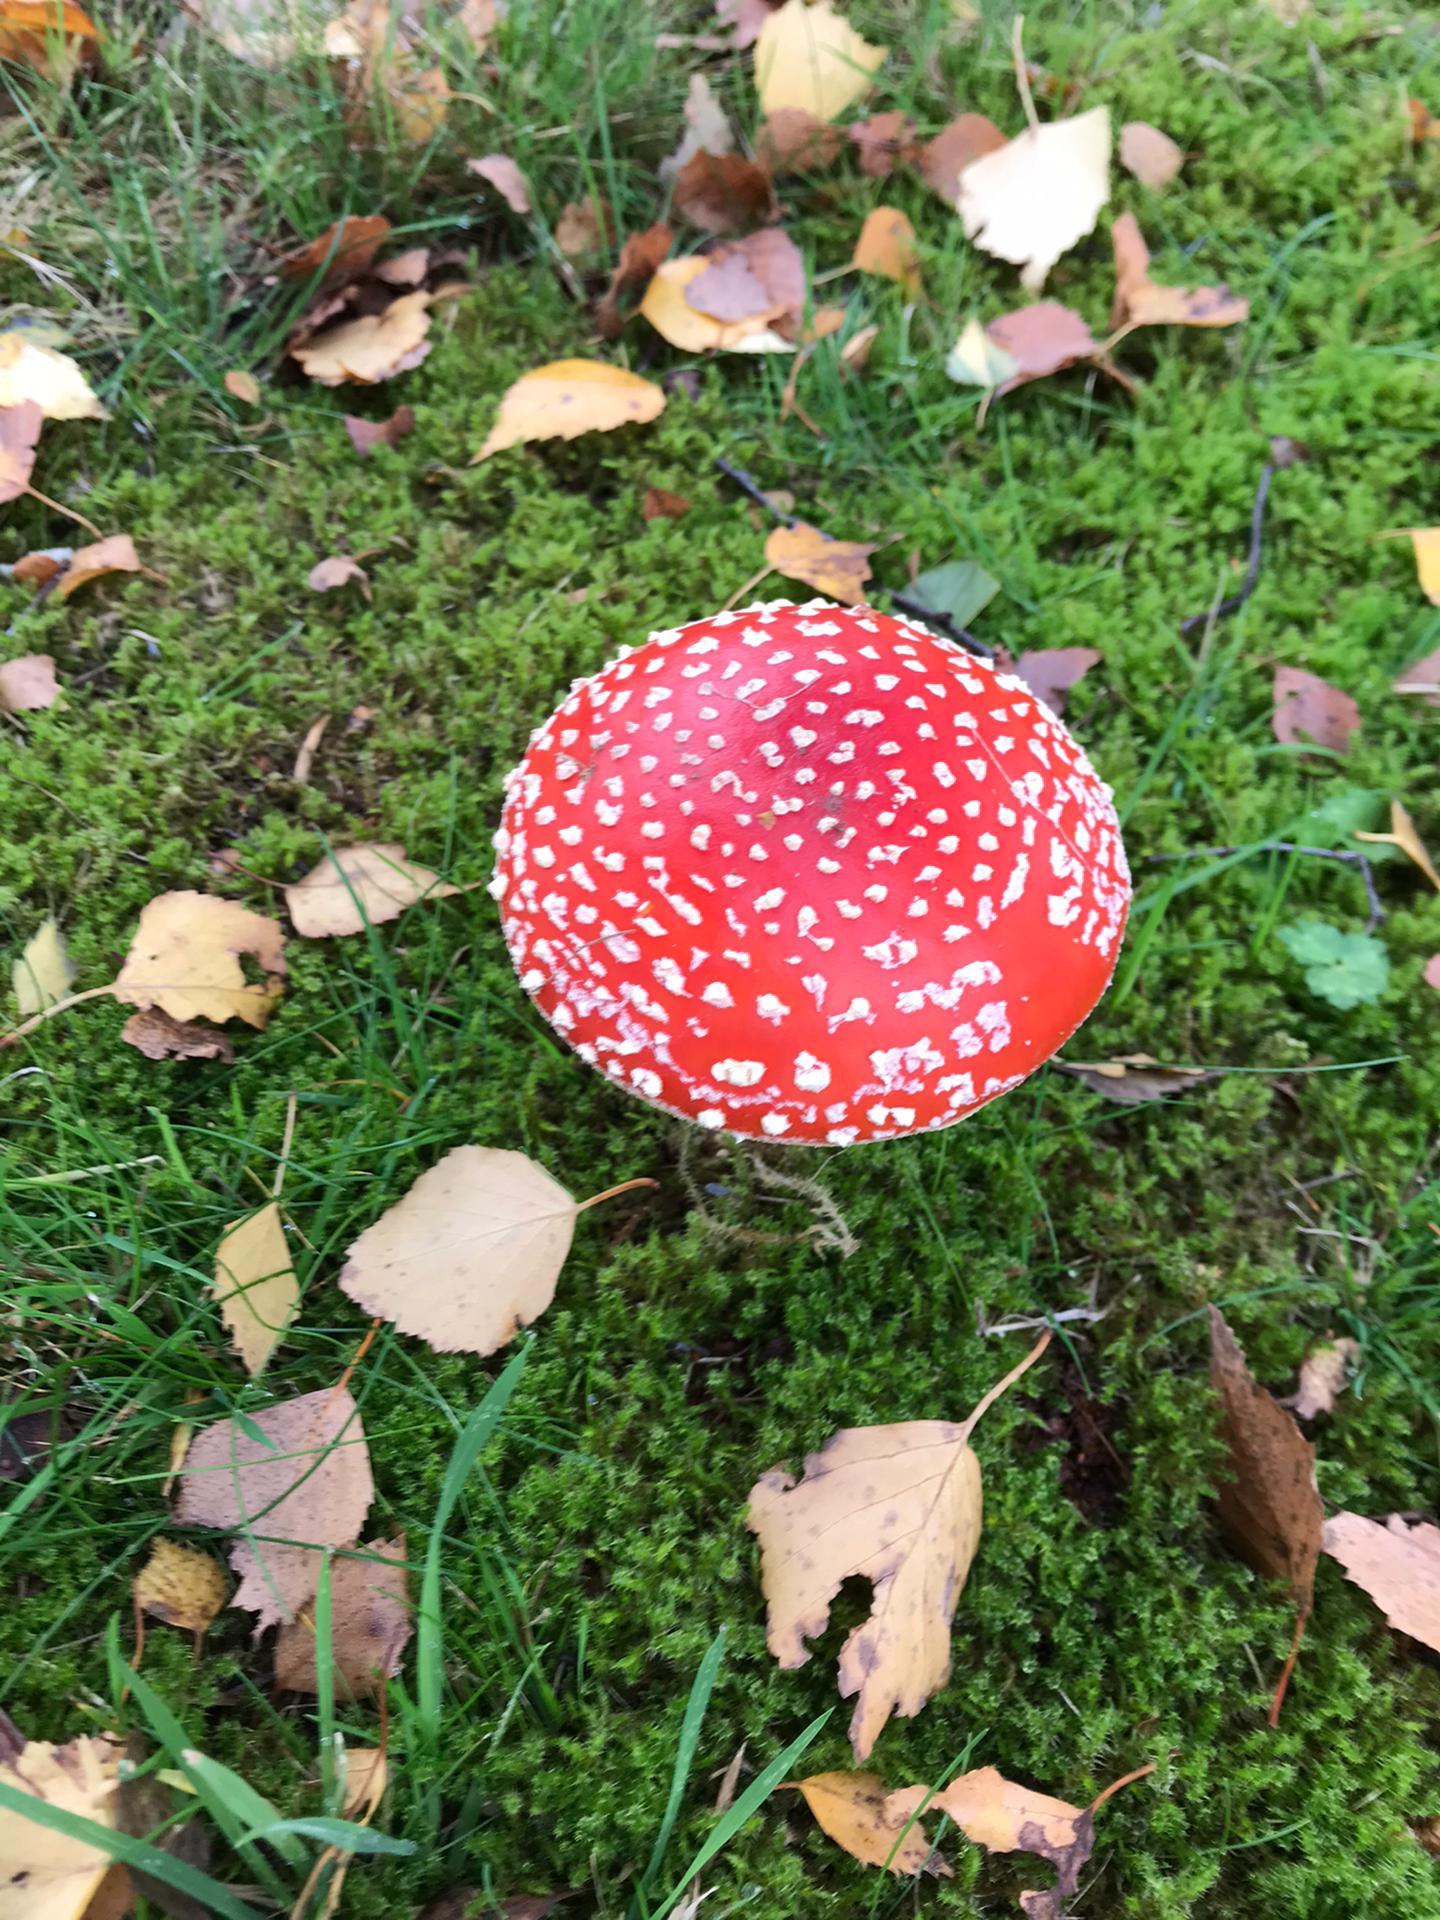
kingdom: Fungi
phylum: Basidiomycota
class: Agaricomycetes
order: Agaricales
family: Amanitaceae
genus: Amanita
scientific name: Amanita muscaria
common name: Fly agaric
